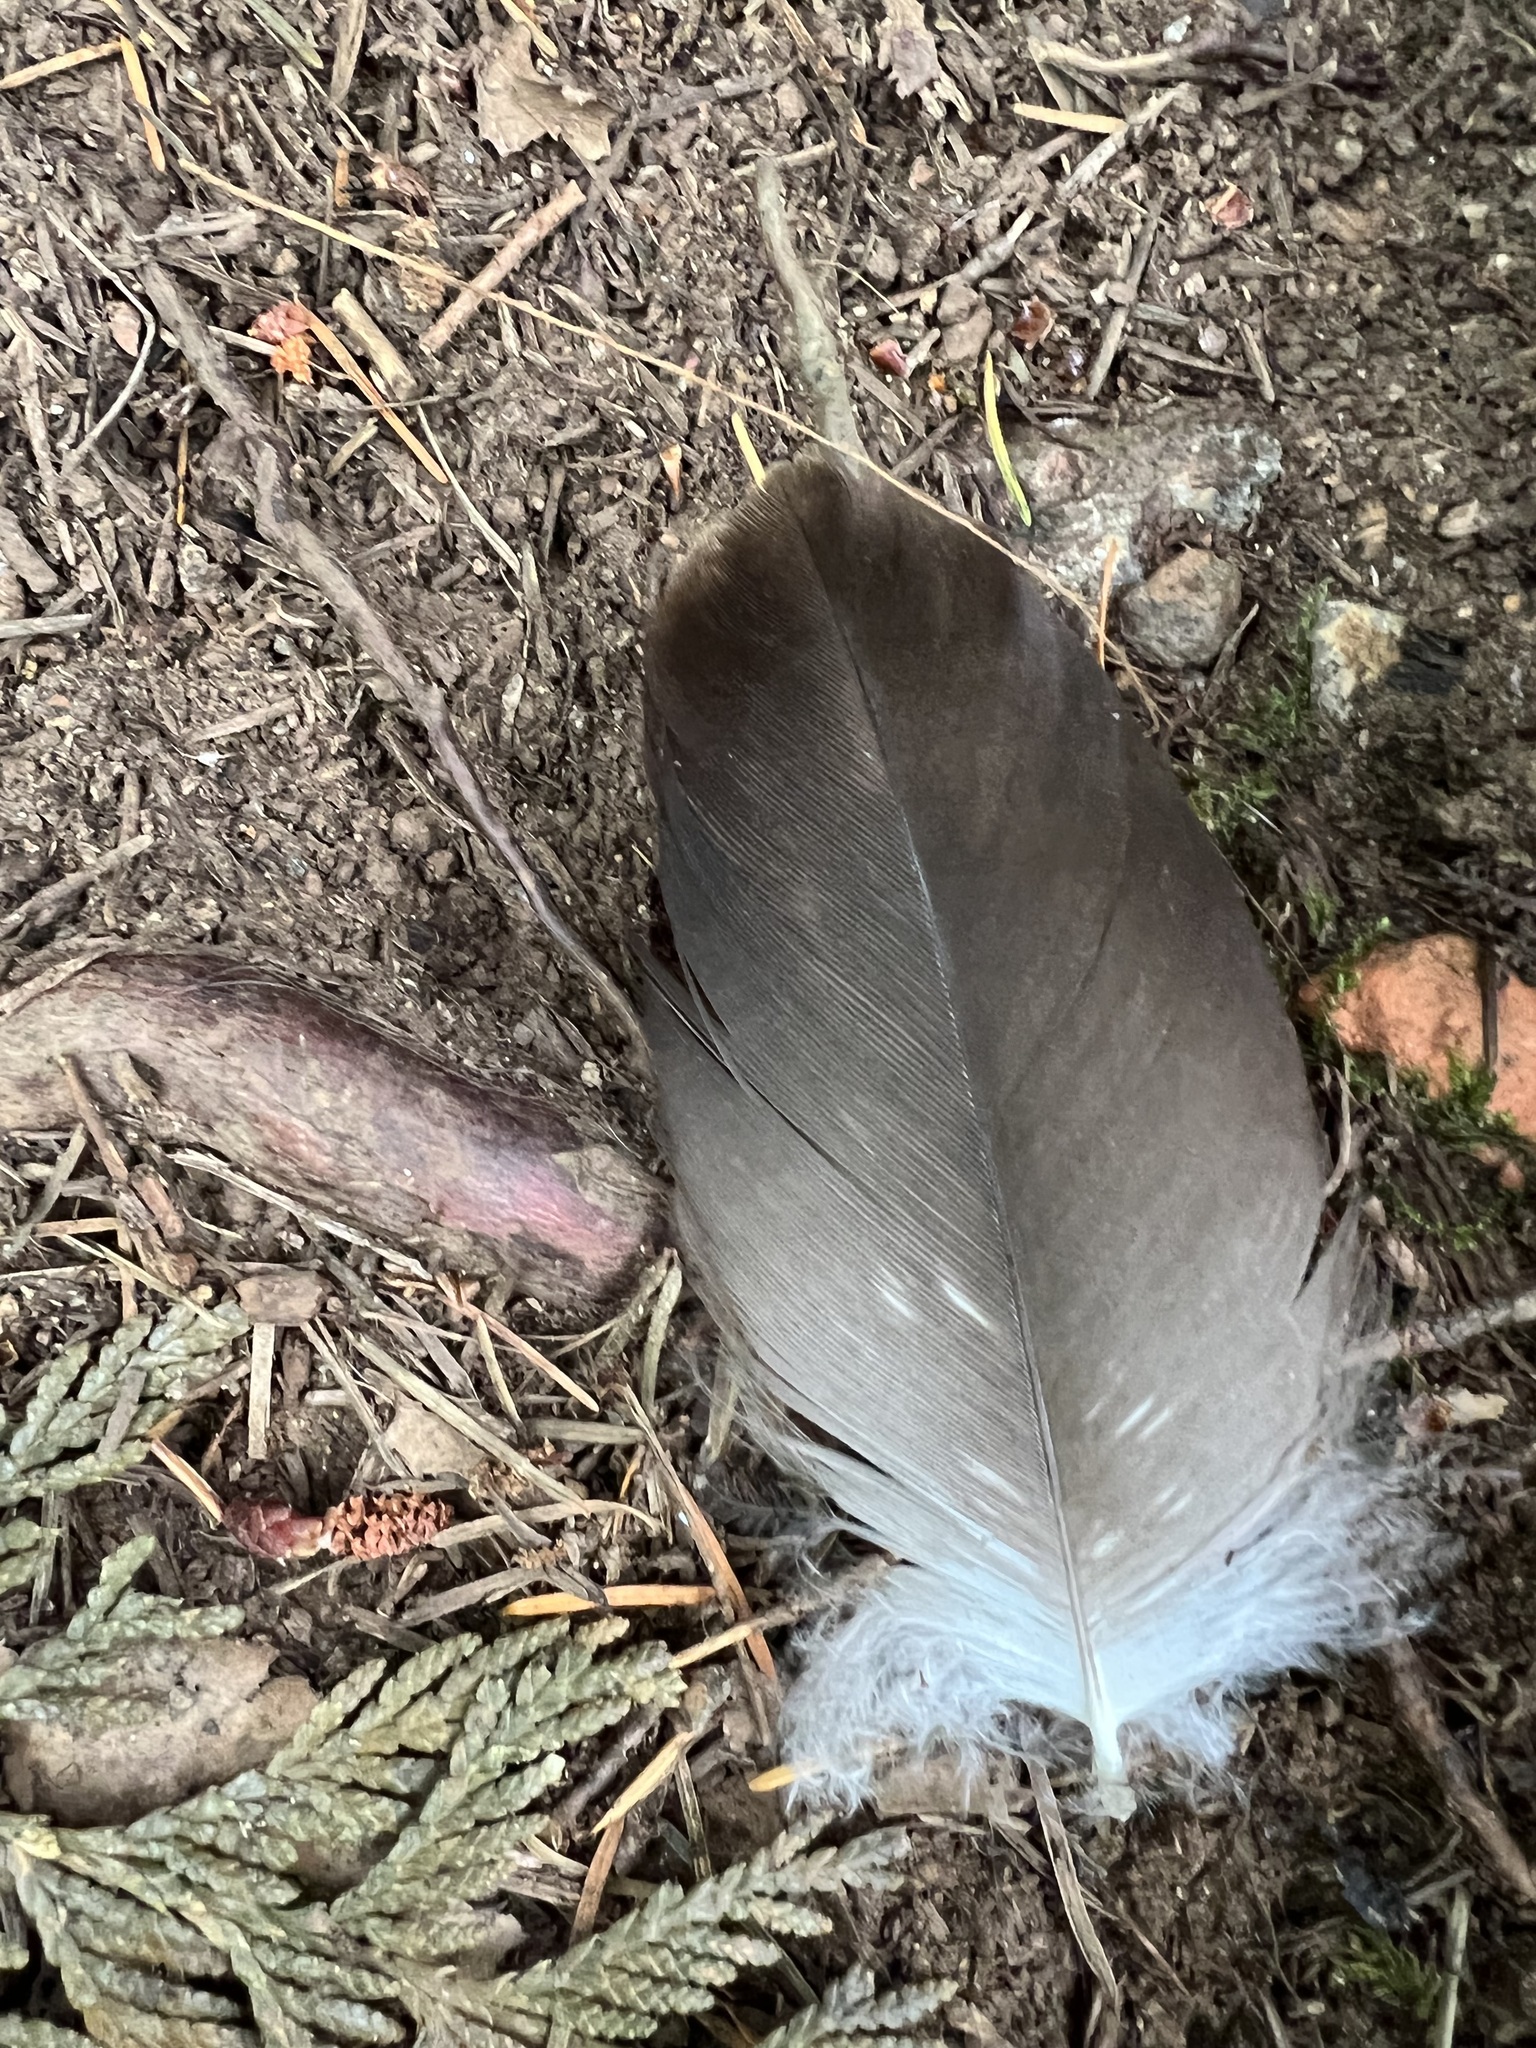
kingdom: Animalia
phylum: Chordata
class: Aves
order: Accipitriformes
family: Accipitridae
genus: Haliaeetus
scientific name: Haliaeetus leucocephalus
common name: Bald eagle
